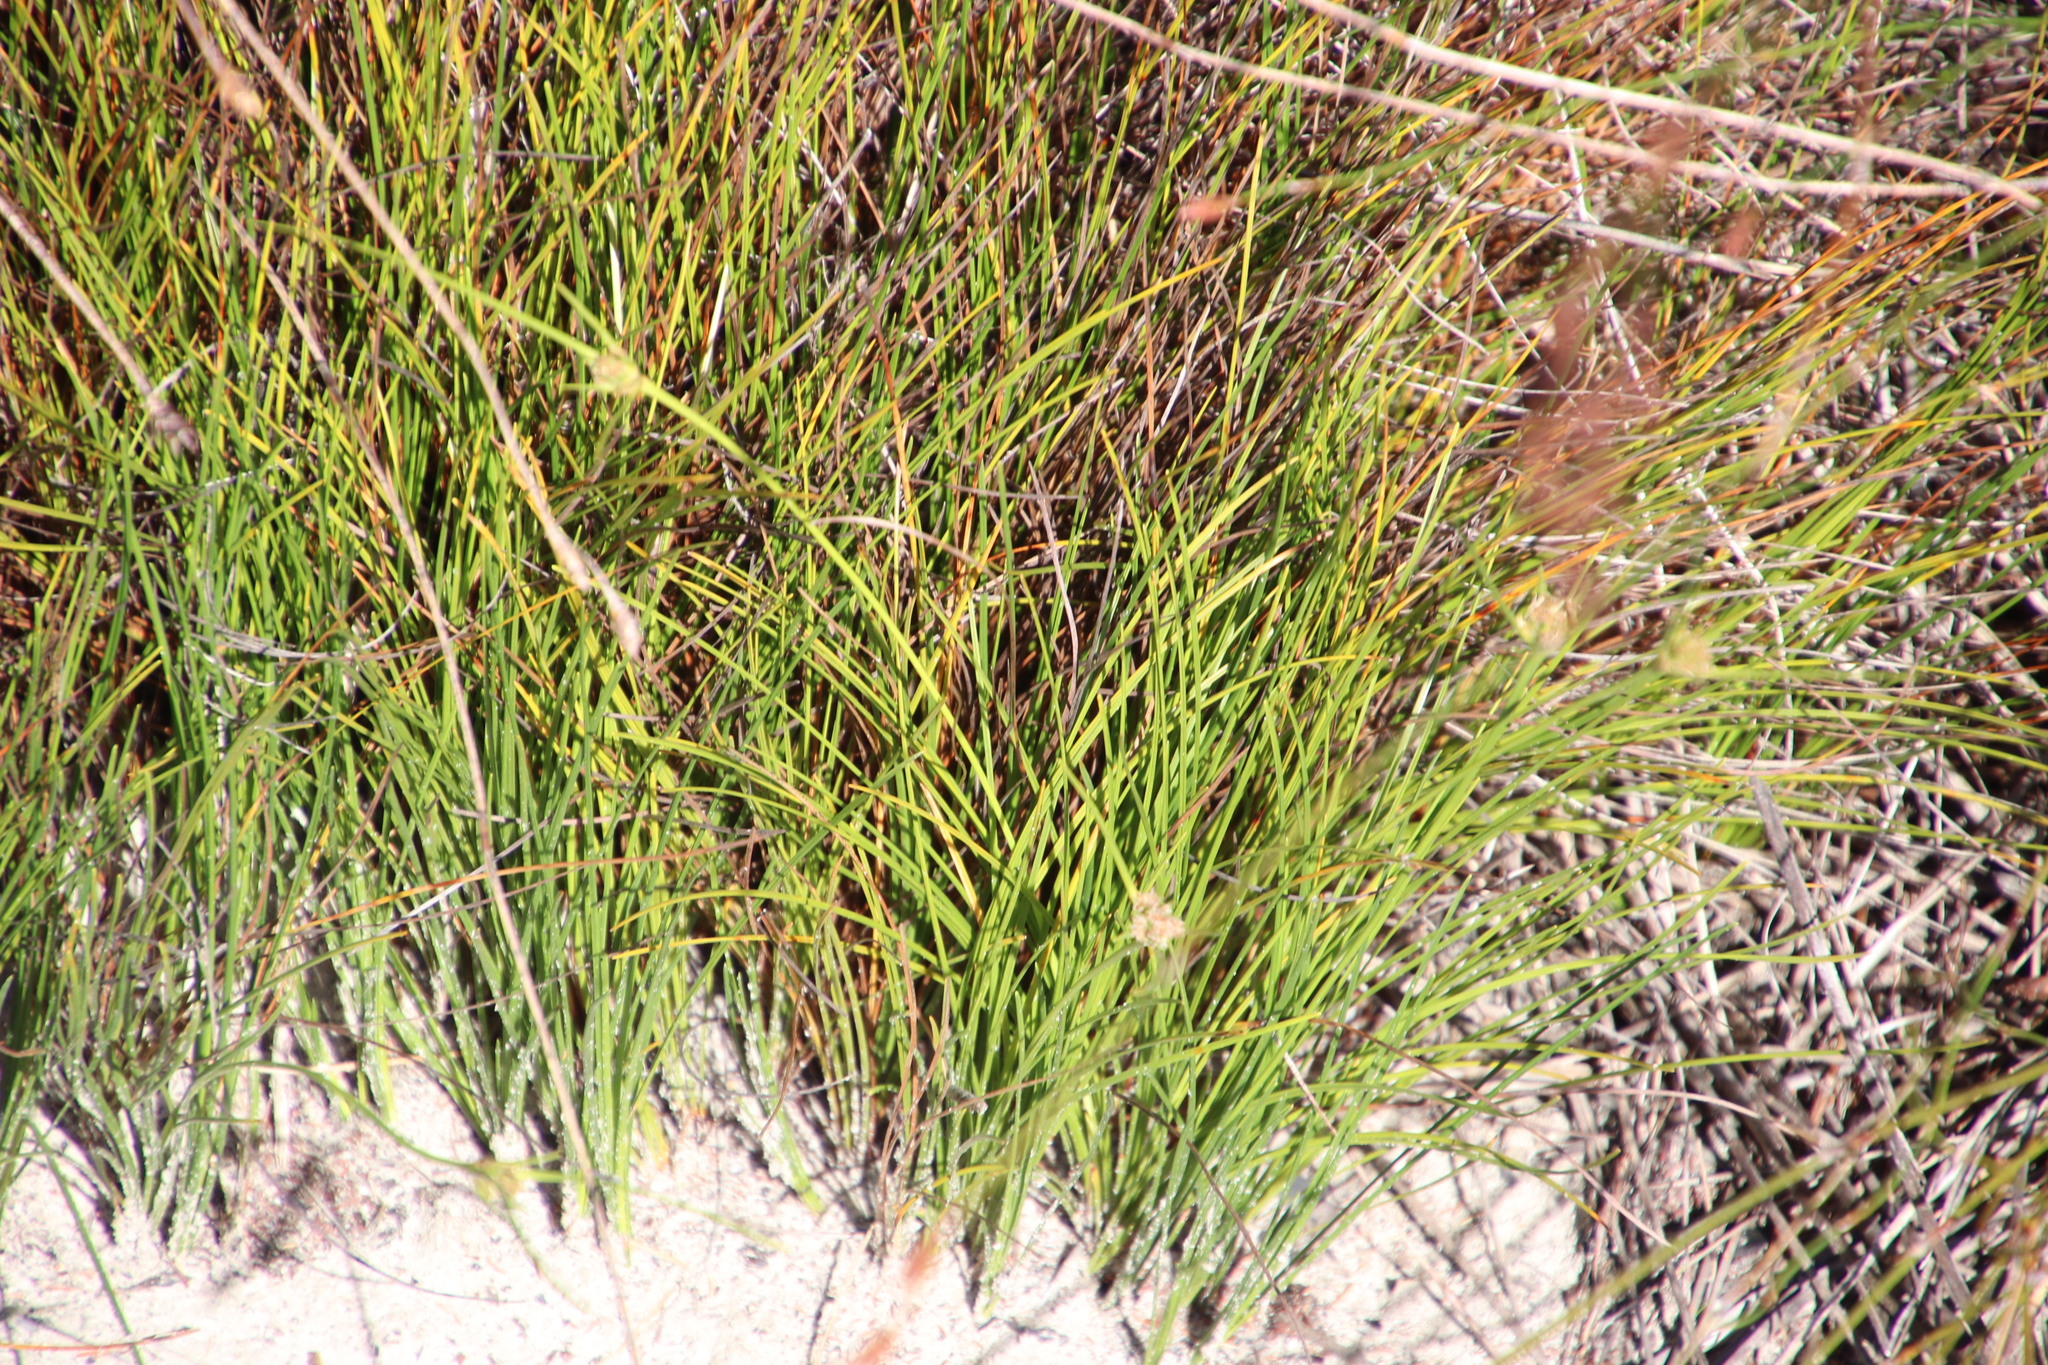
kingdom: Plantae
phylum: Tracheophyta
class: Liliopsida
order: Poales
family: Cyperaceae
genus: Ficinia
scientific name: Ficinia pallens
